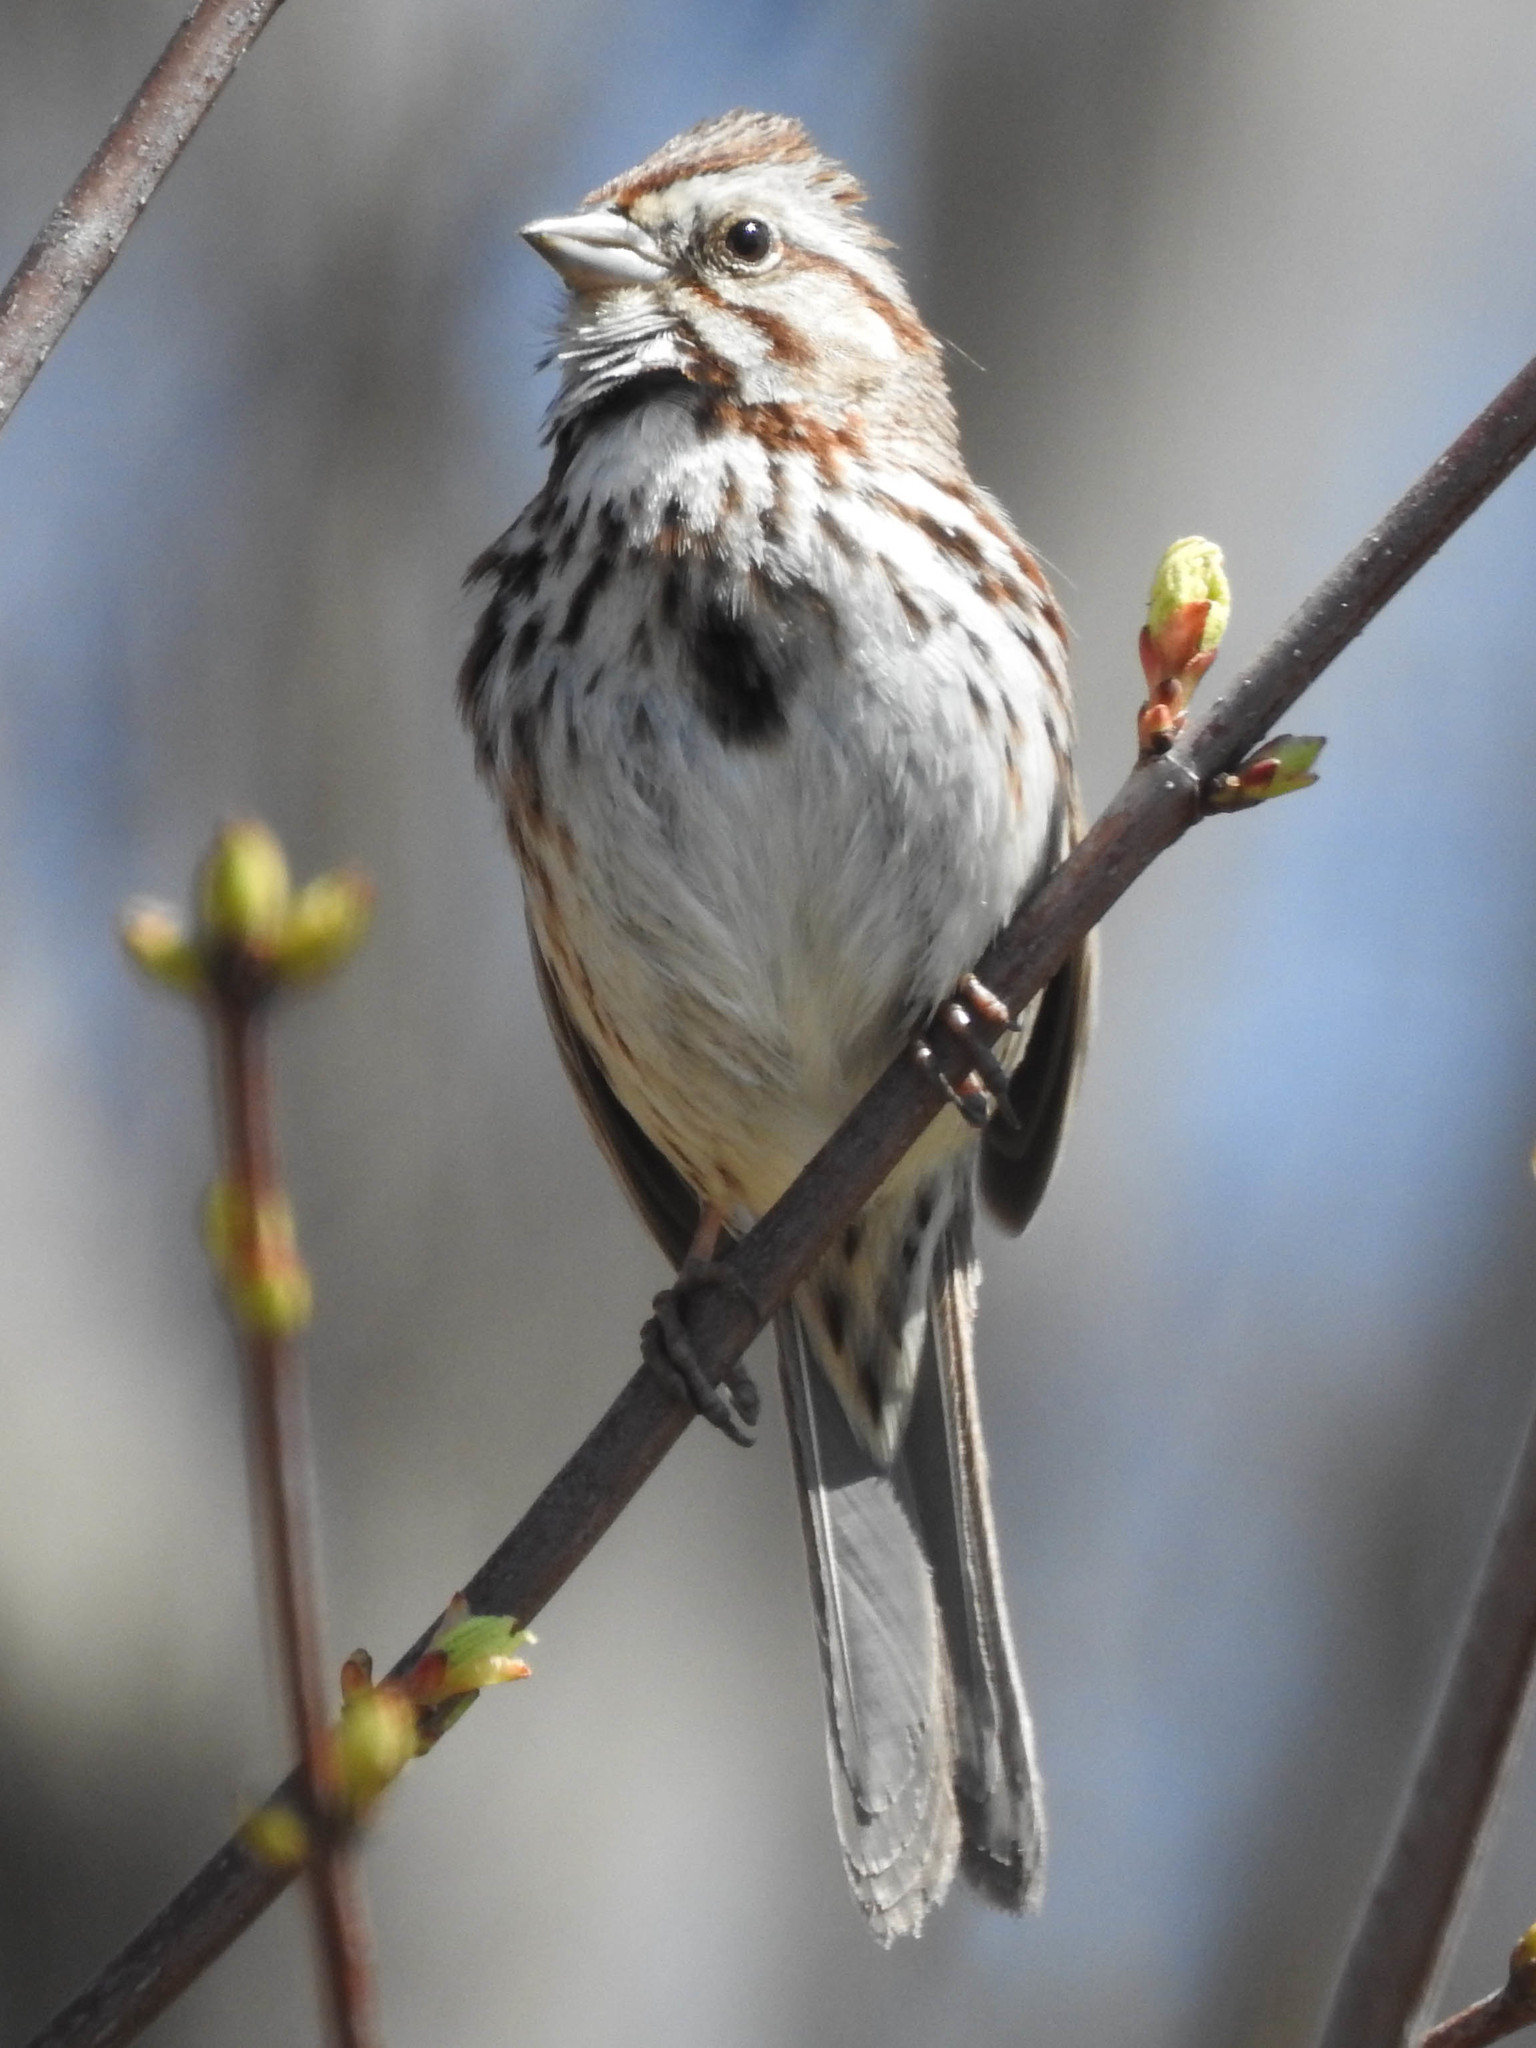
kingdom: Animalia
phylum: Chordata
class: Aves
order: Passeriformes
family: Passerellidae
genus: Melospiza
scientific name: Melospiza melodia
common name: Song sparrow
